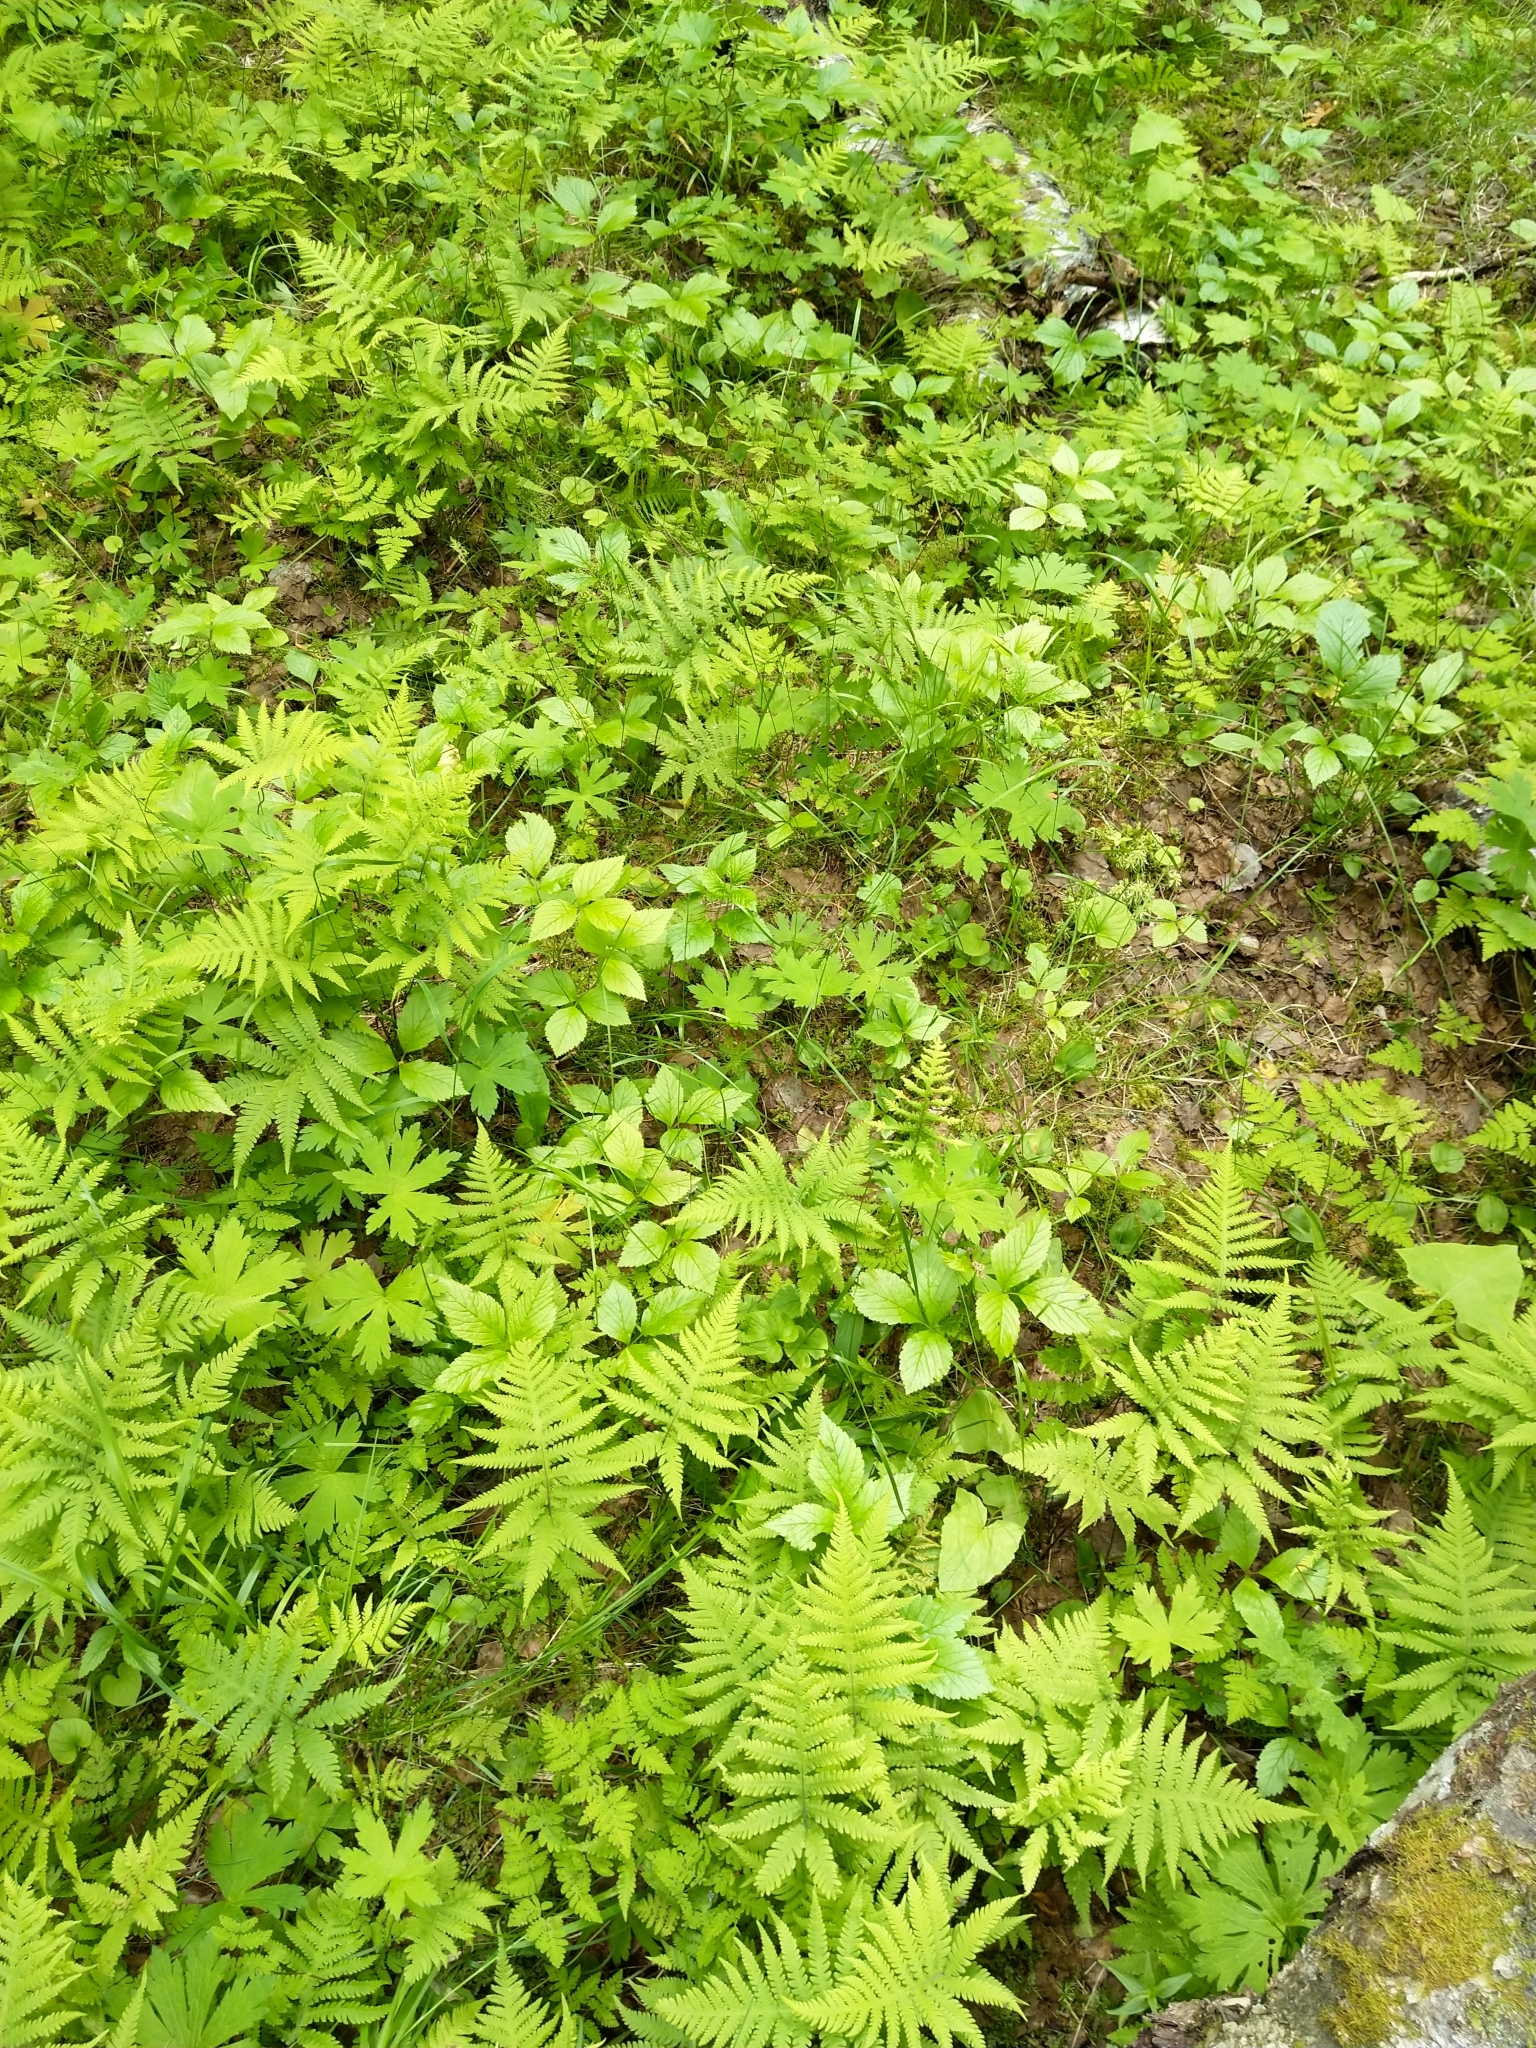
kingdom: Plantae
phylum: Tracheophyta
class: Polypodiopsida
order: Polypodiales
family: Thelypteridaceae
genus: Phegopteris
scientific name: Phegopteris connectilis
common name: Beech fern
